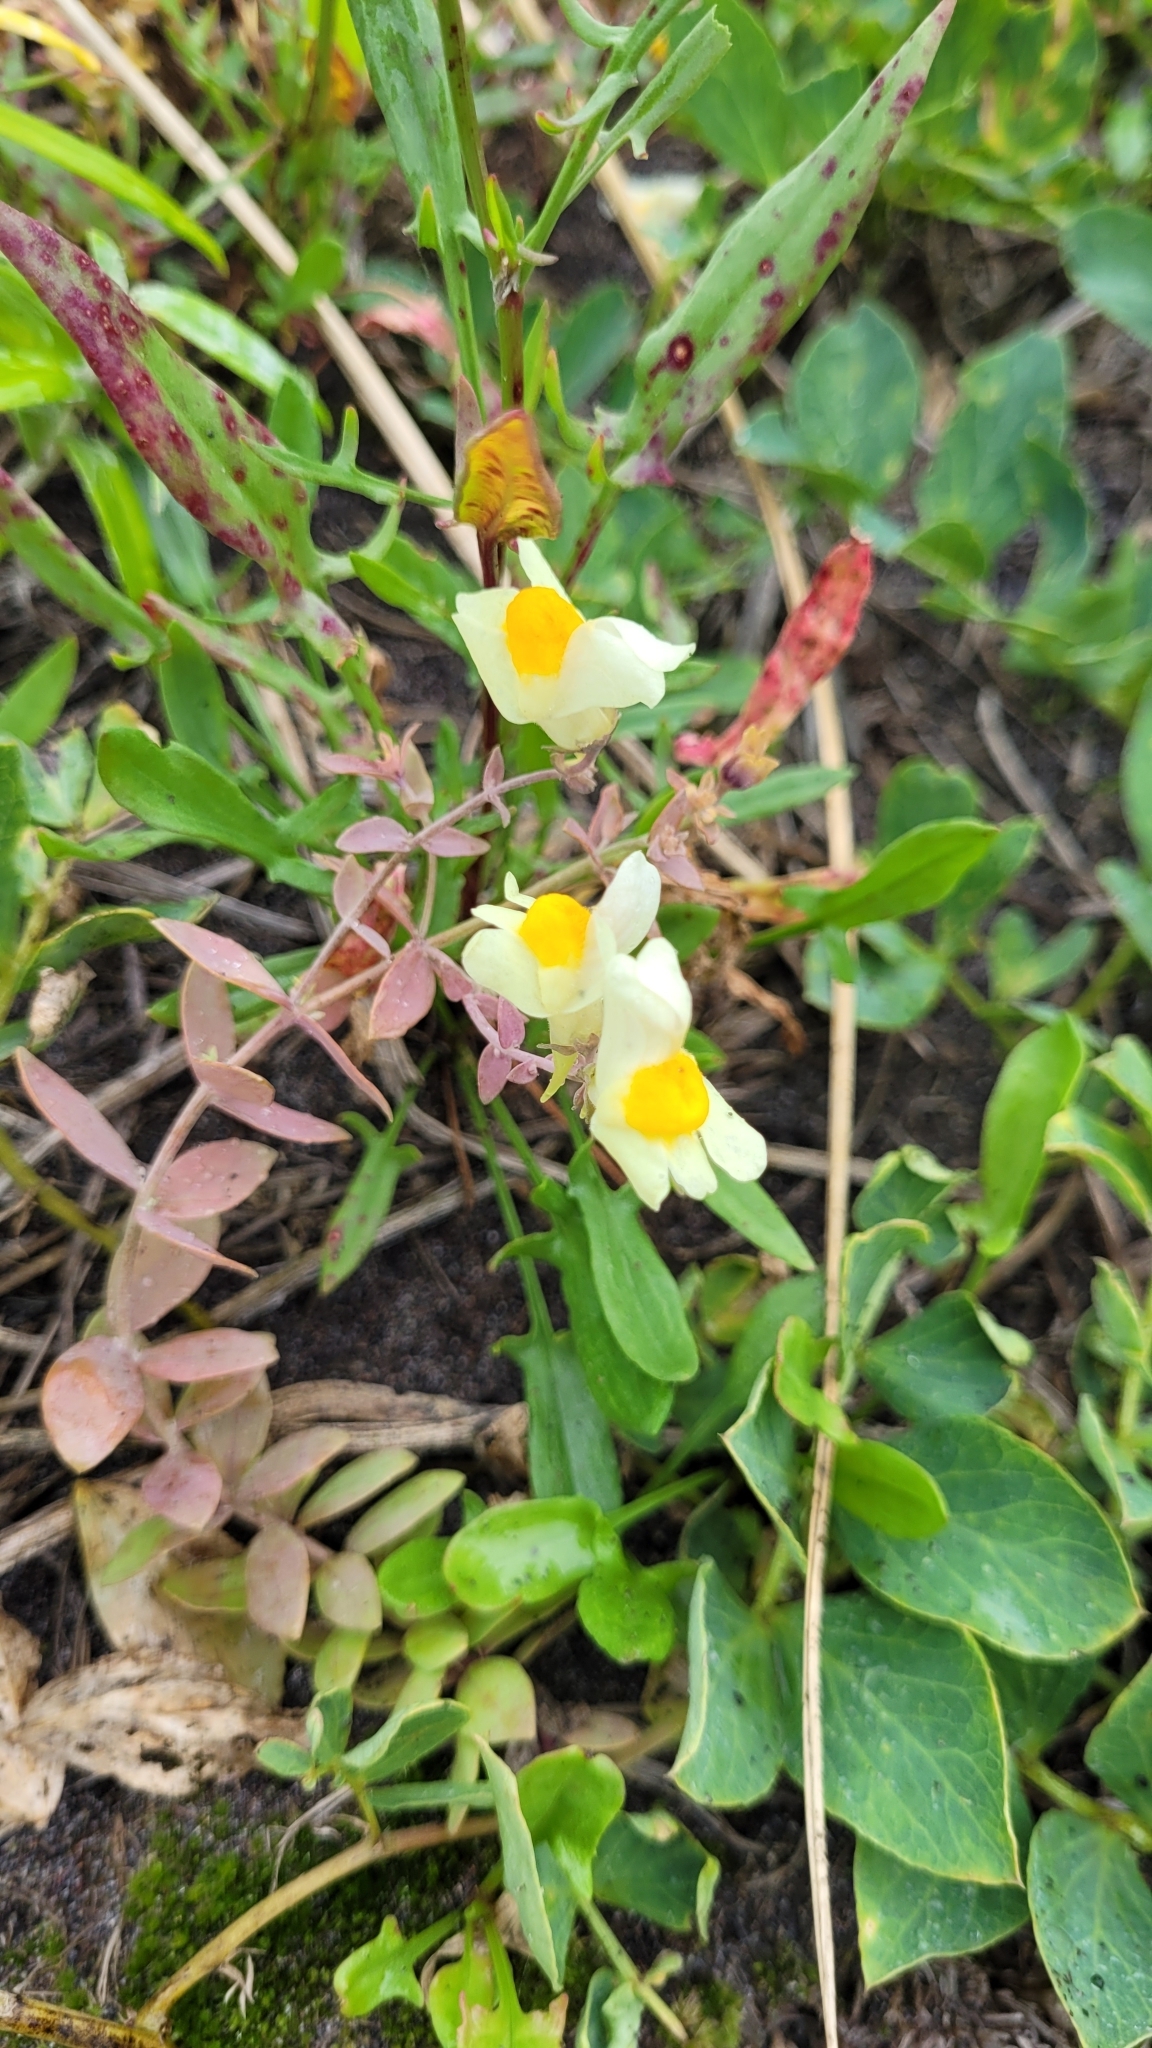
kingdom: Plantae
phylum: Tracheophyta
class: Magnoliopsida
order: Lamiales
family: Plantaginaceae
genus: Linaria
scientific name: Linaria japonica
